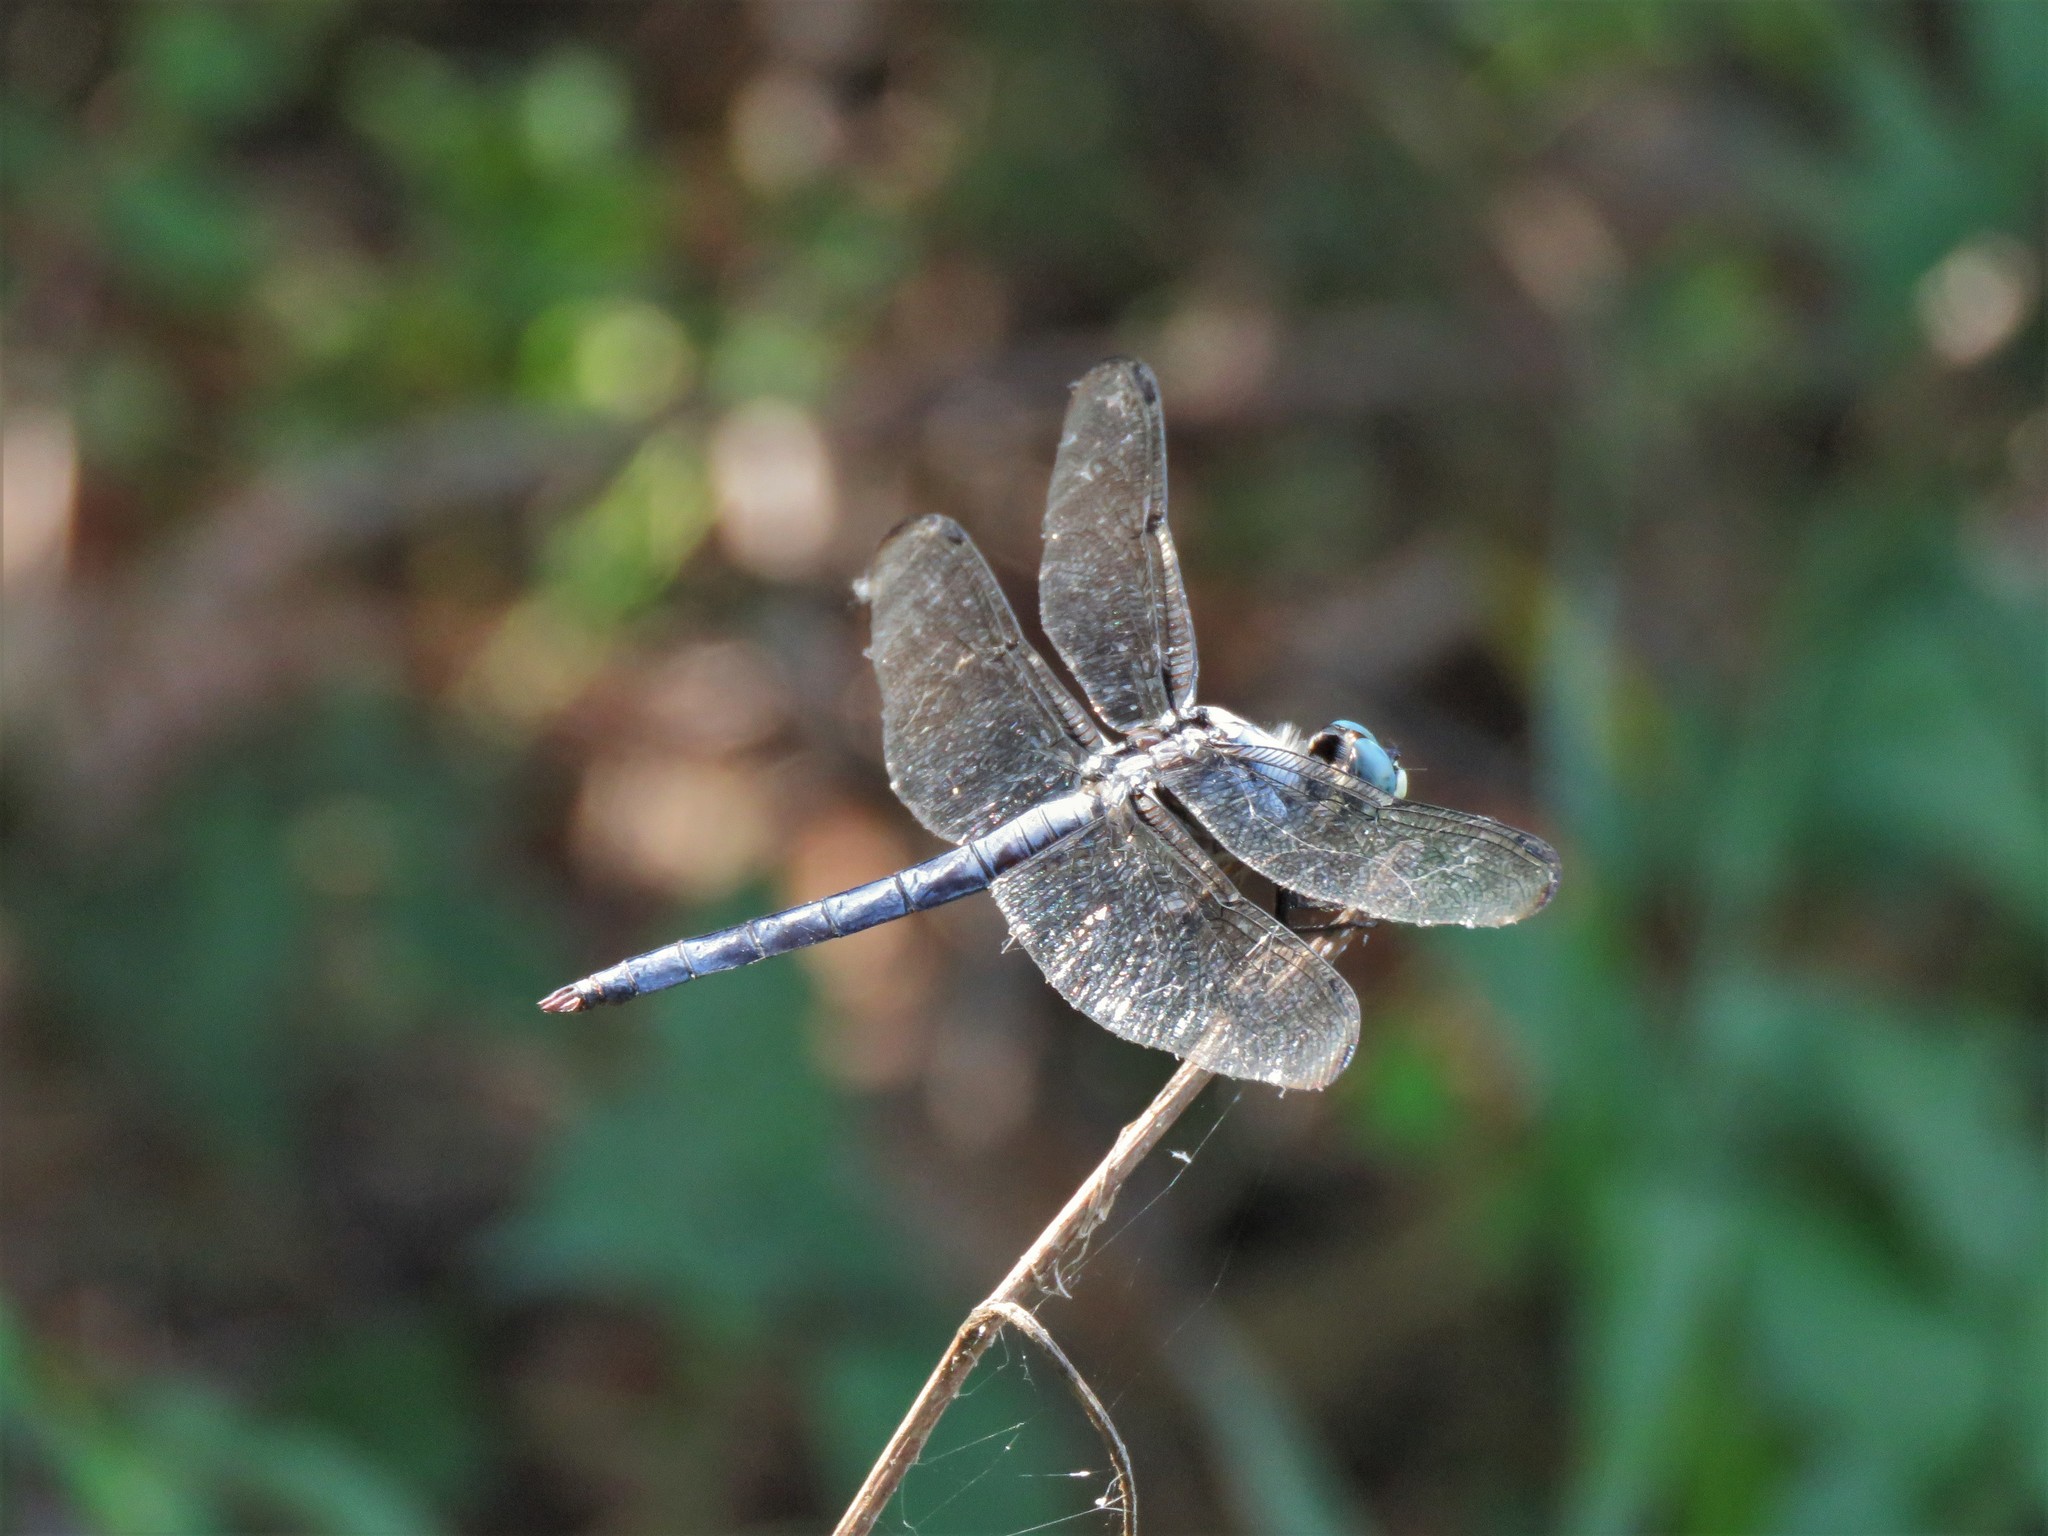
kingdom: Animalia
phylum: Arthropoda
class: Insecta
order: Odonata
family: Libellulidae
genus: Libellula
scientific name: Libellula vibrans
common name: Great blue skimmer
